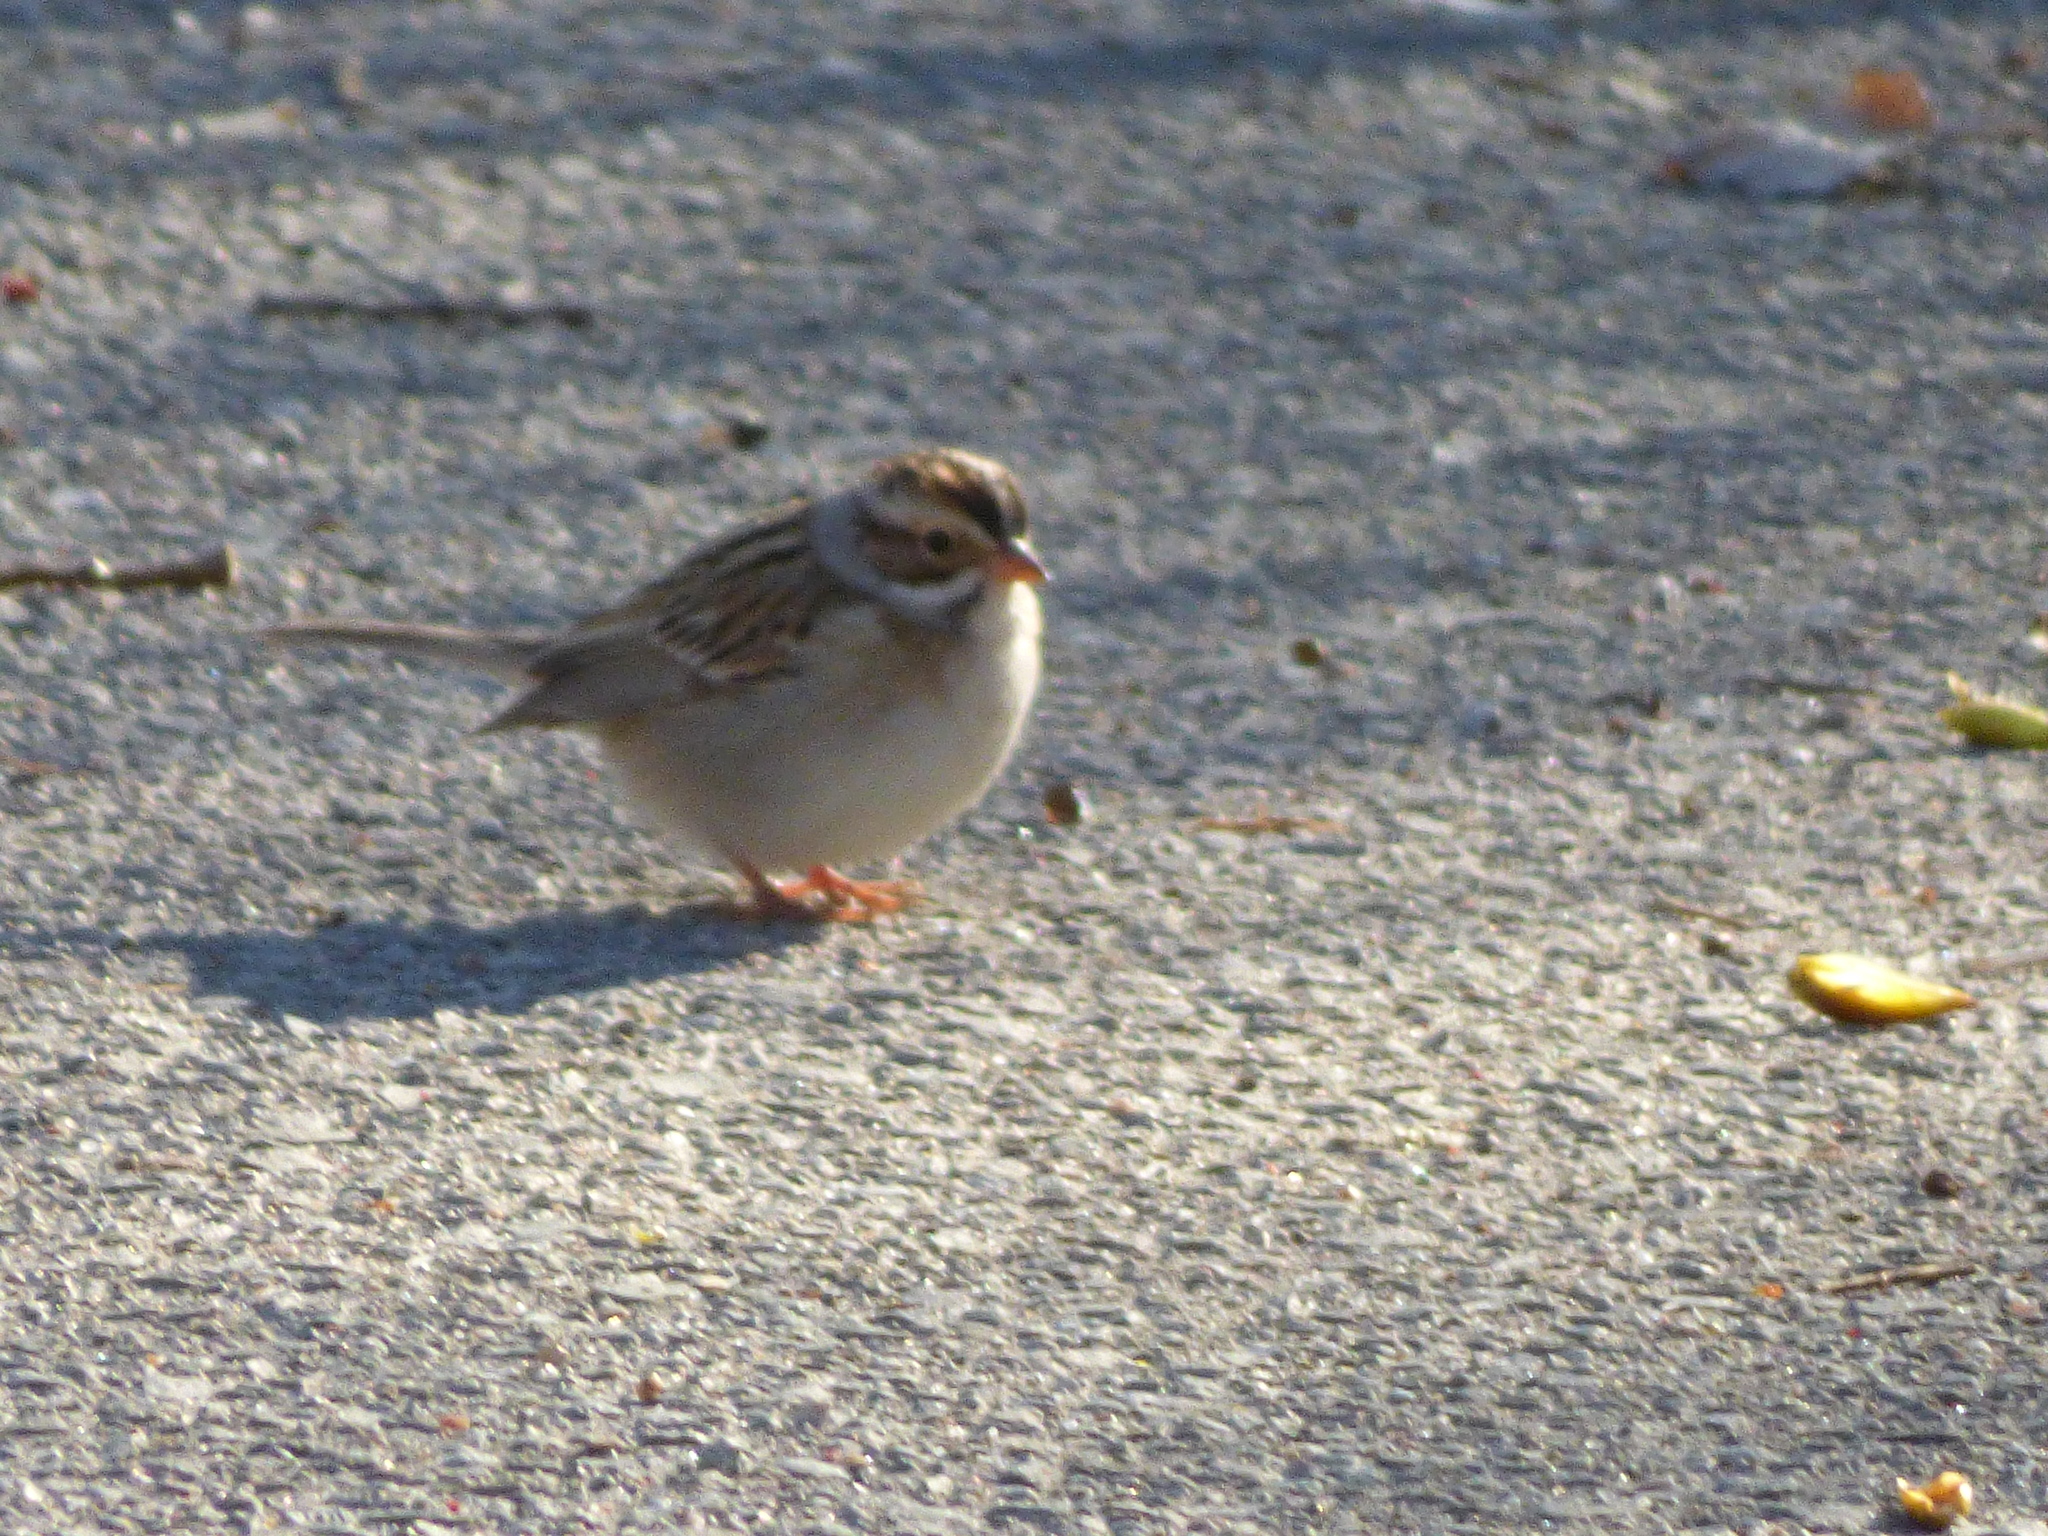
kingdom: Animalia
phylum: Chordata
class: Aves
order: Passeriformes
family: Passerellidae
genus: Spizella
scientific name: Spizella pallida
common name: Clay-colored sparrow
